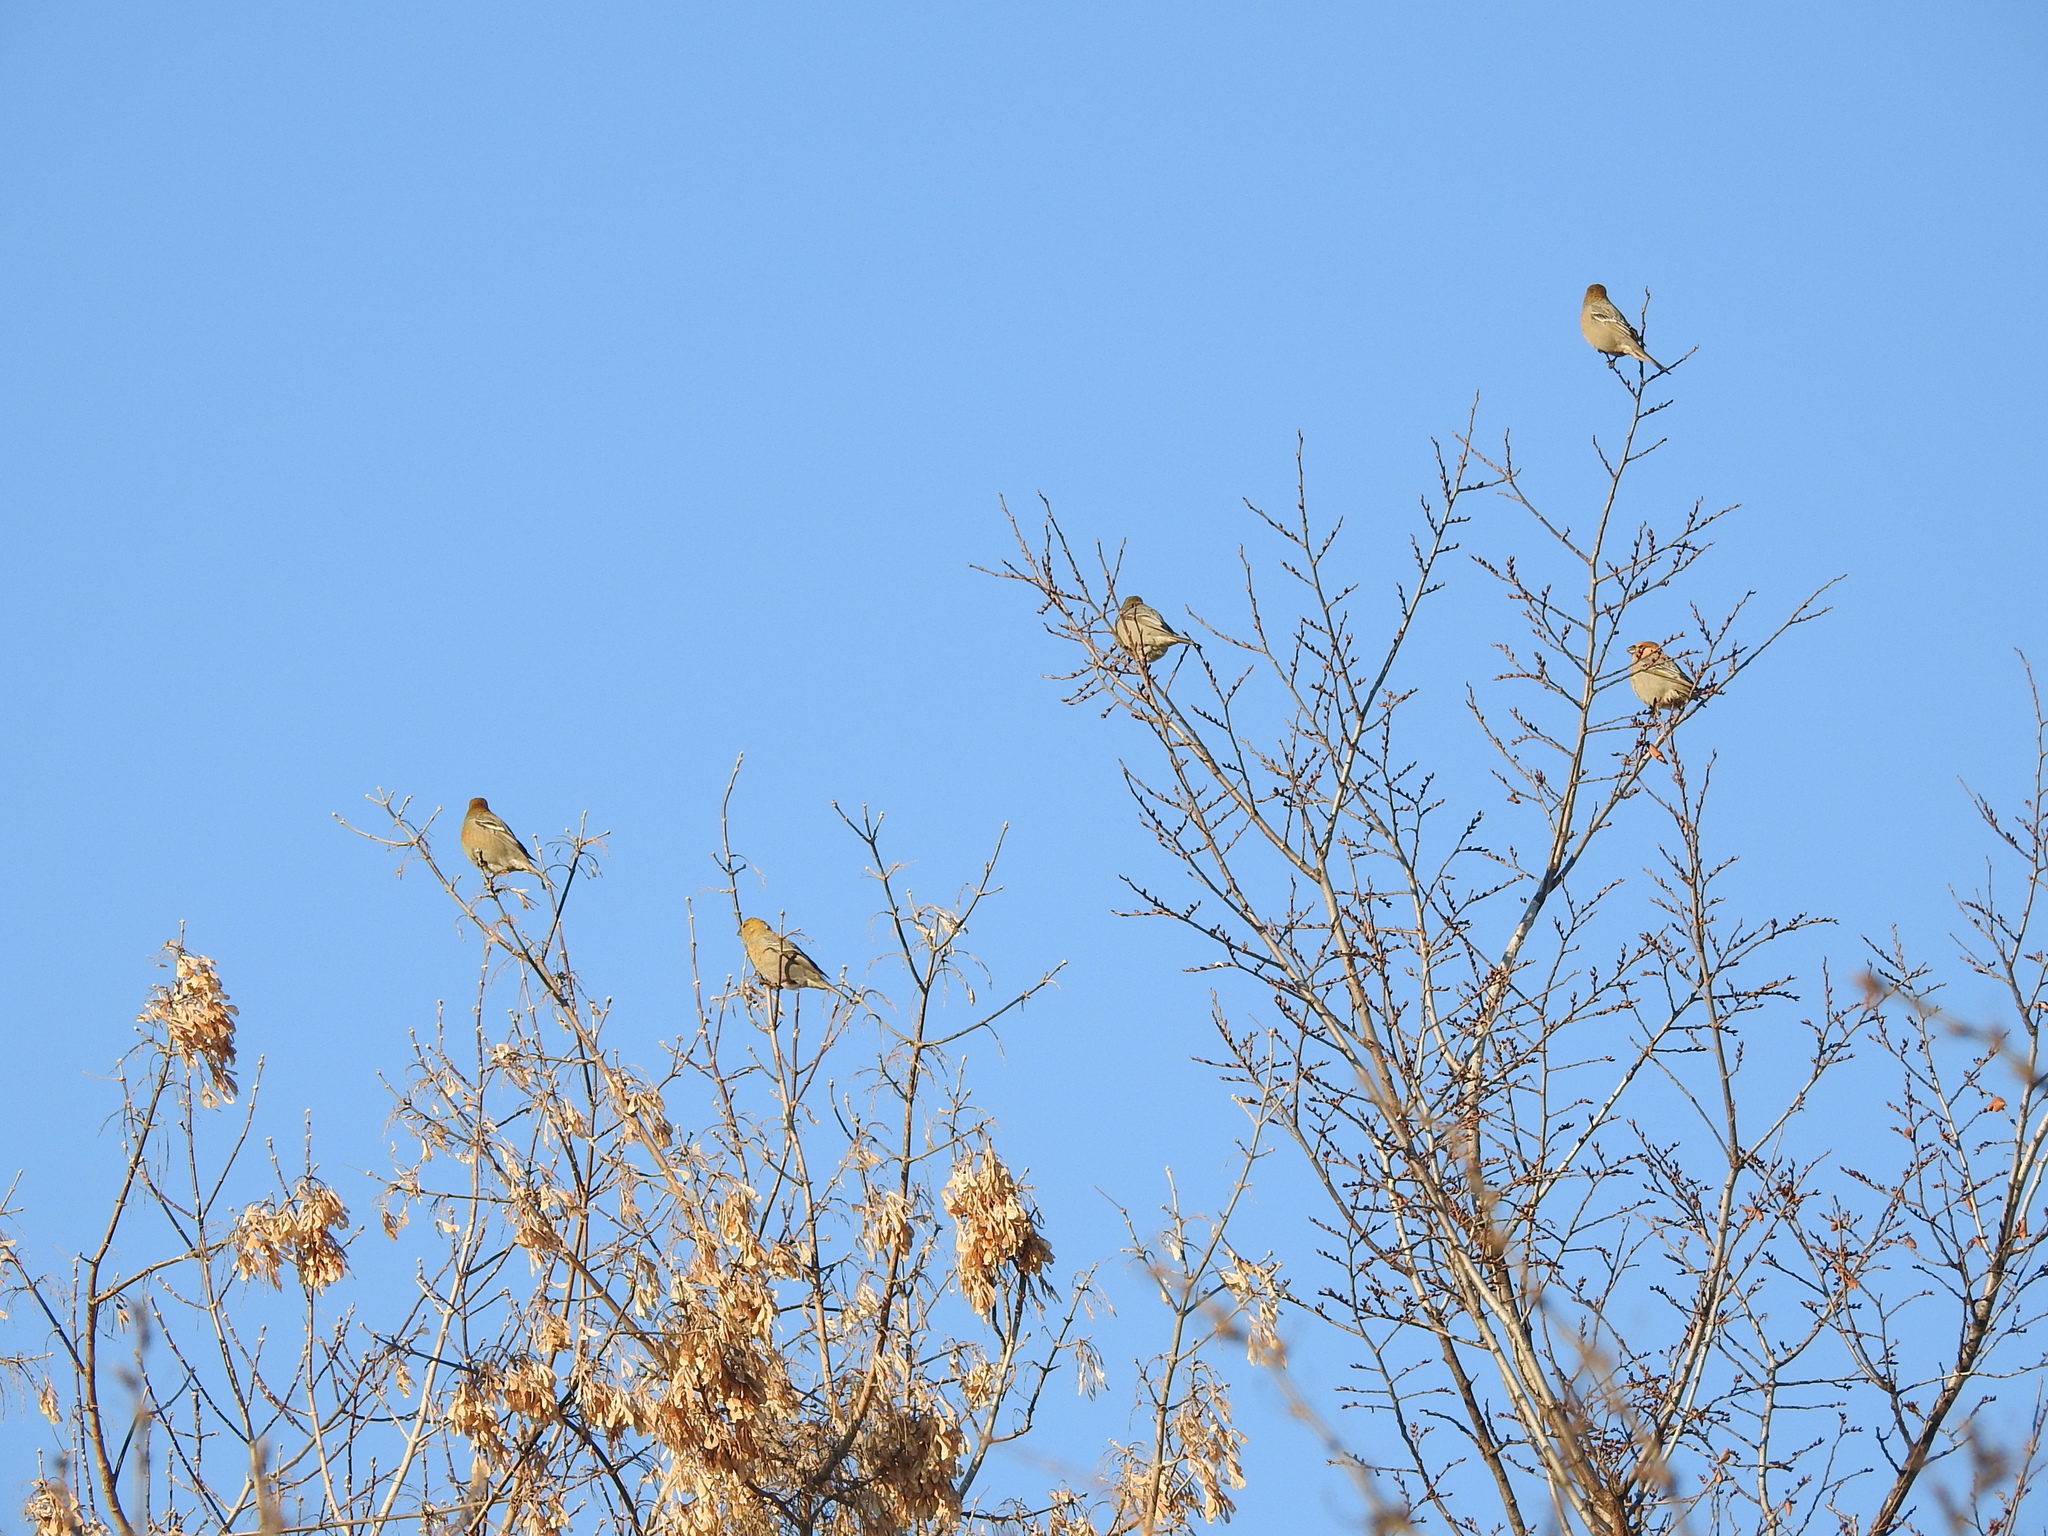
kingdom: Animalia
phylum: Chordata
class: Aves
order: Passeriformes
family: Fringillidae
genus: Pinicola
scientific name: Pinicola enucleator
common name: Pine grosbeak
